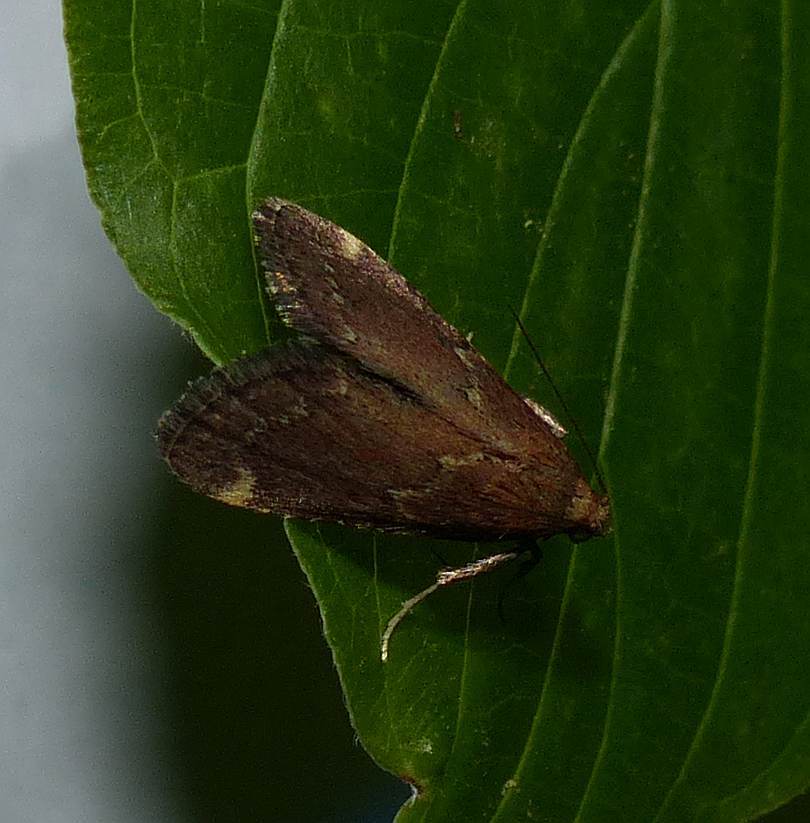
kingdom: Animalia
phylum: Arthropoda
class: Insecta
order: Lepidoptera
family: Pyralidae
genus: Hypsopygia
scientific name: Hypsopygia intermedialis
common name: Red-shawled moth
